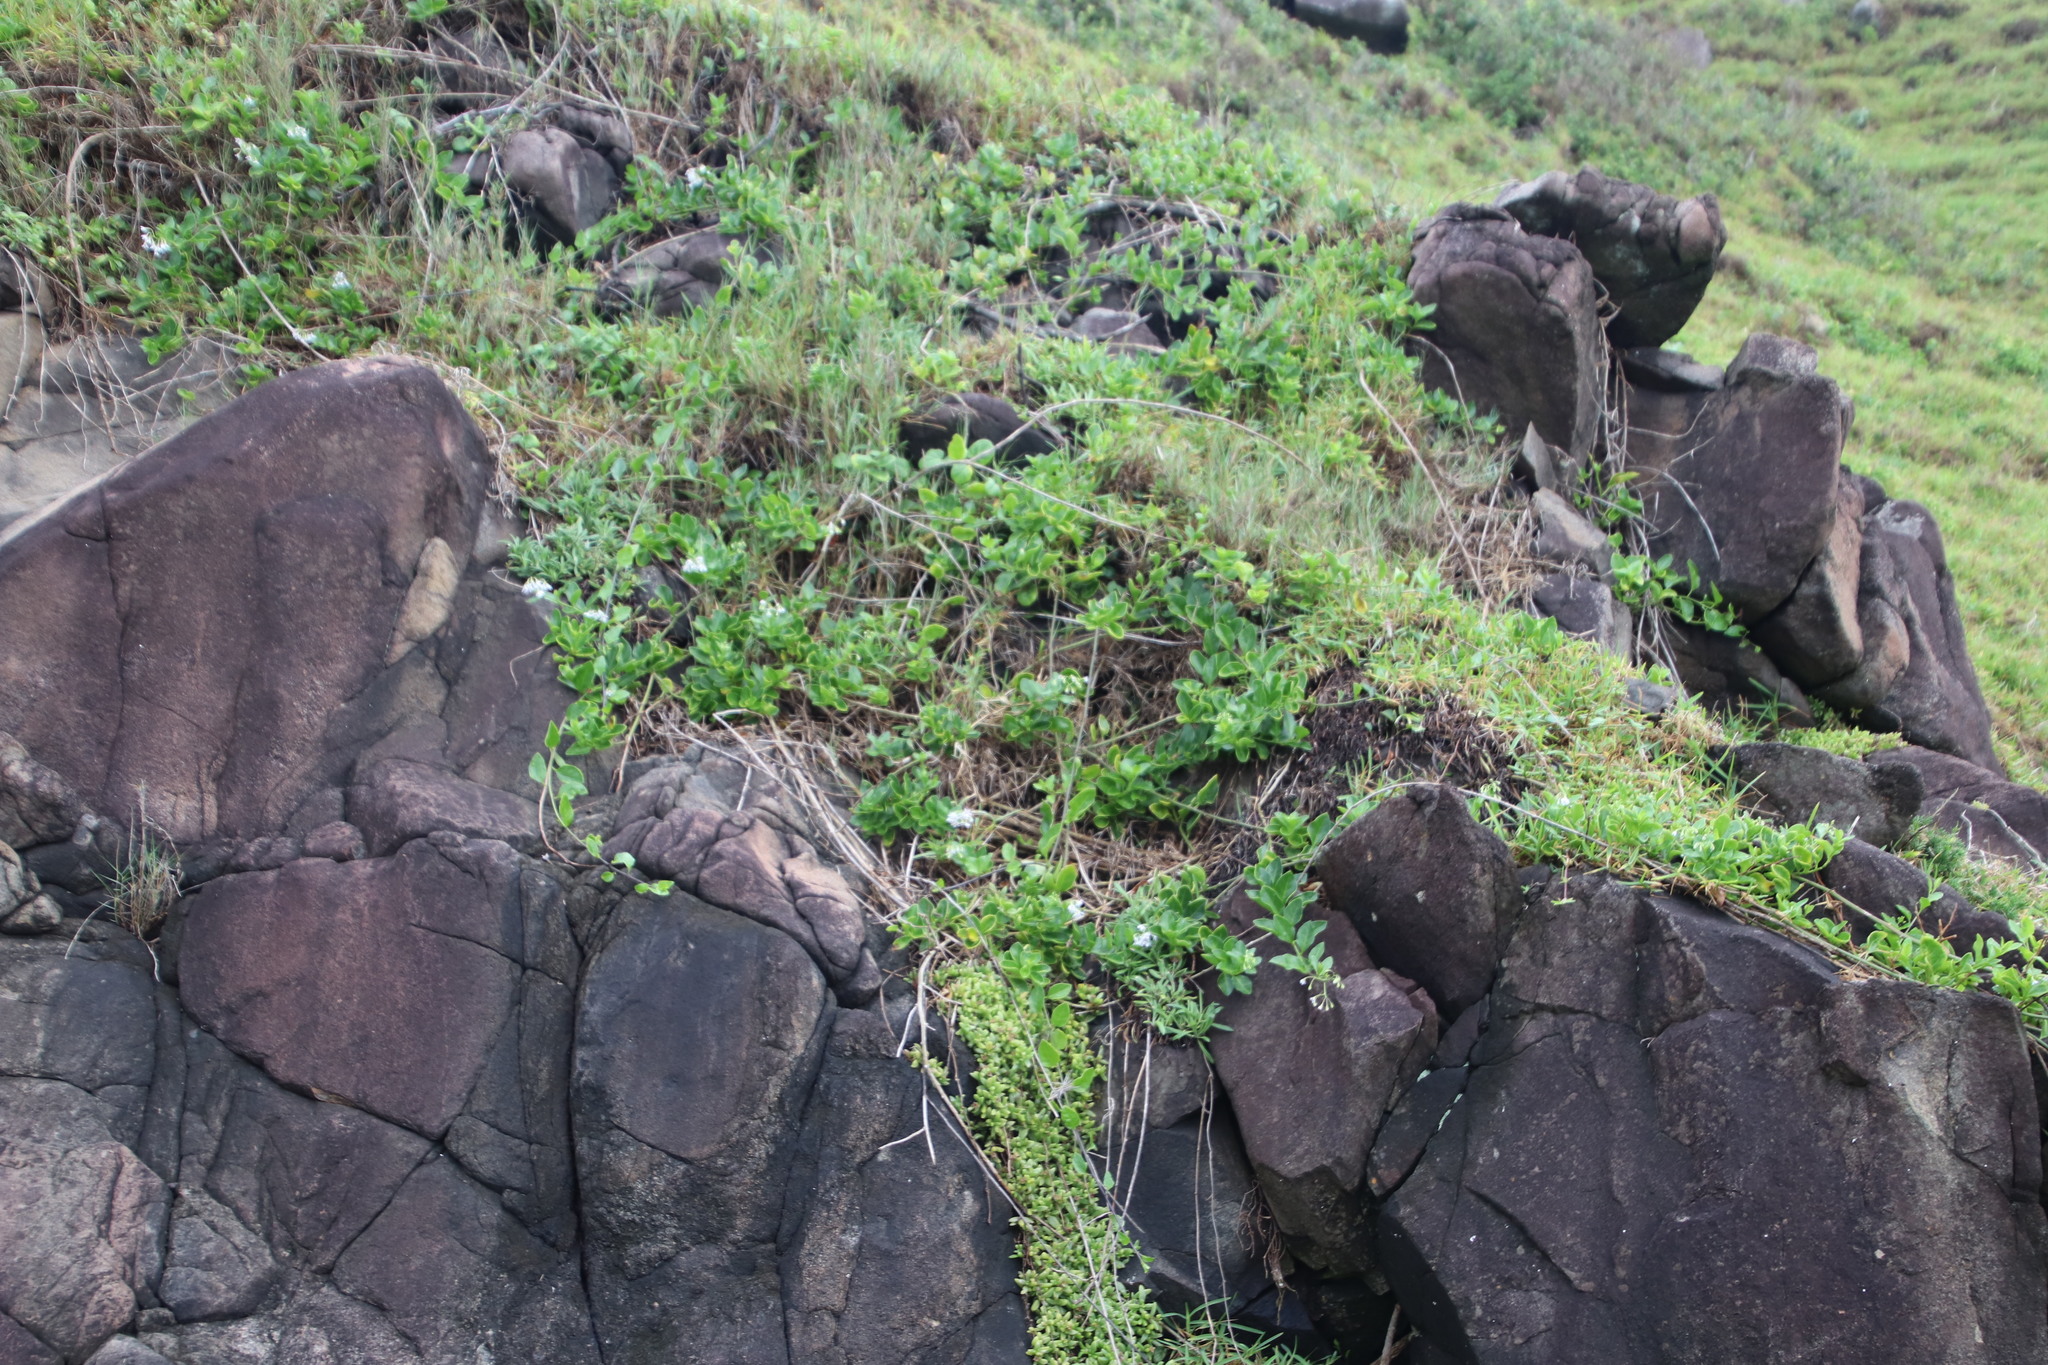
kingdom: Plantae
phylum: Tracheophyta
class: Magnoliopsida
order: Solanales
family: Solanaceae
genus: Solanum
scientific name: Solanum africanum
